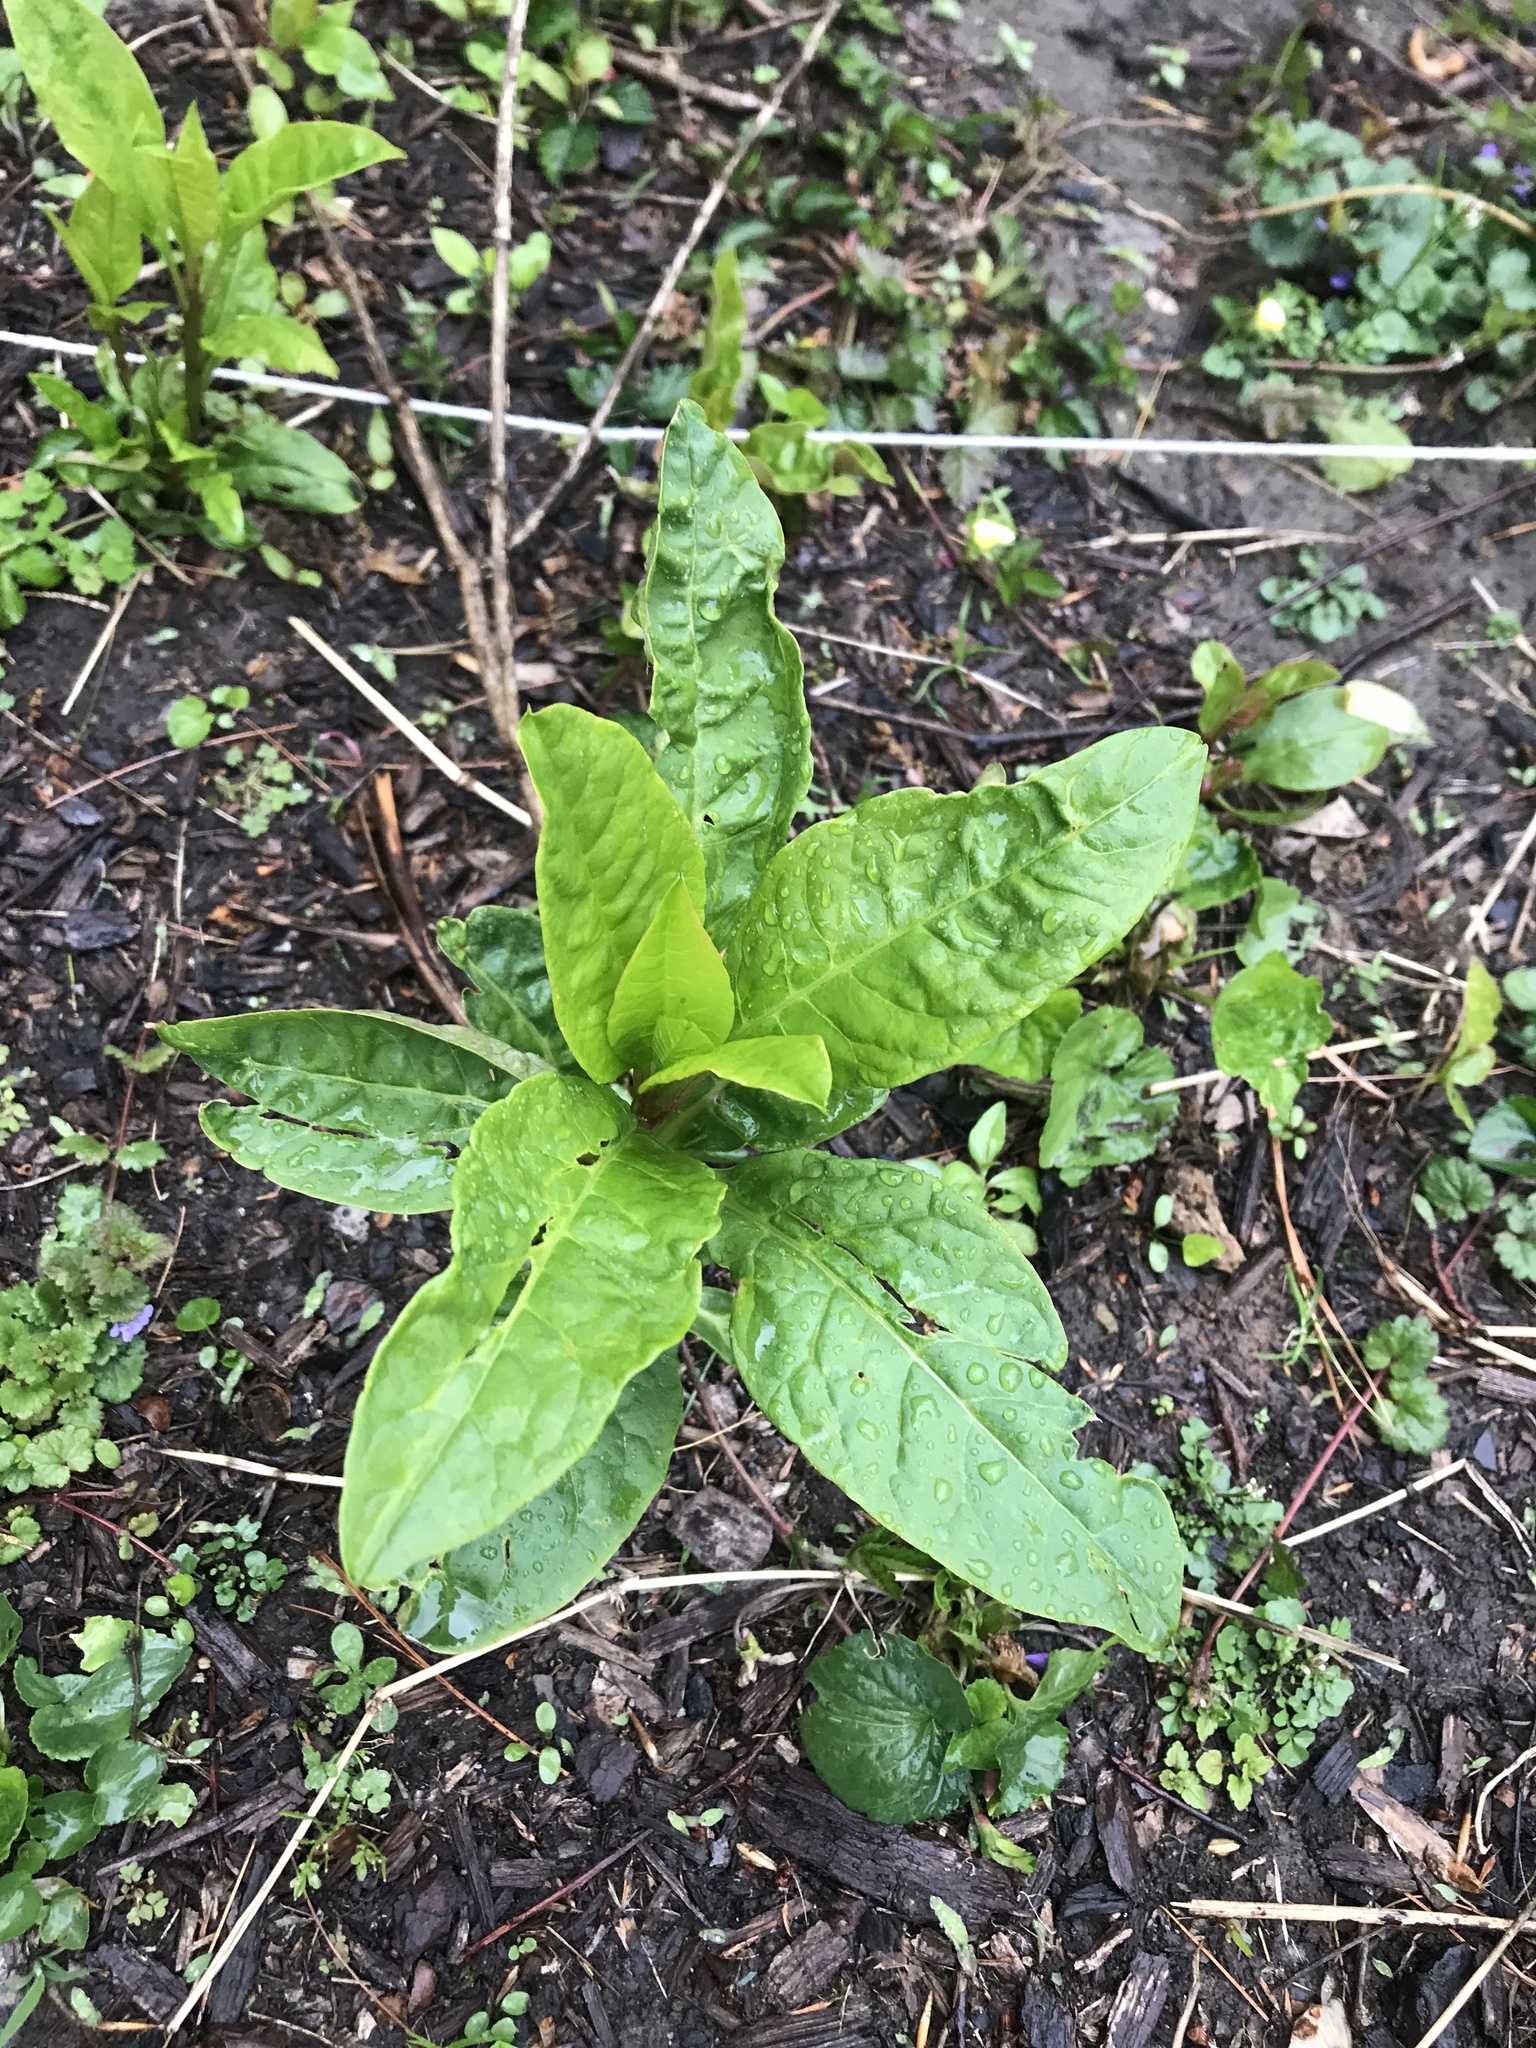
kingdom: Plantae
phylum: Tracheophyta
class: Magnoliopsida
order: Caryophyllales
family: Phytolaccaceae
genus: Phytolacca
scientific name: Phytolacca americana
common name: American pokeweed
